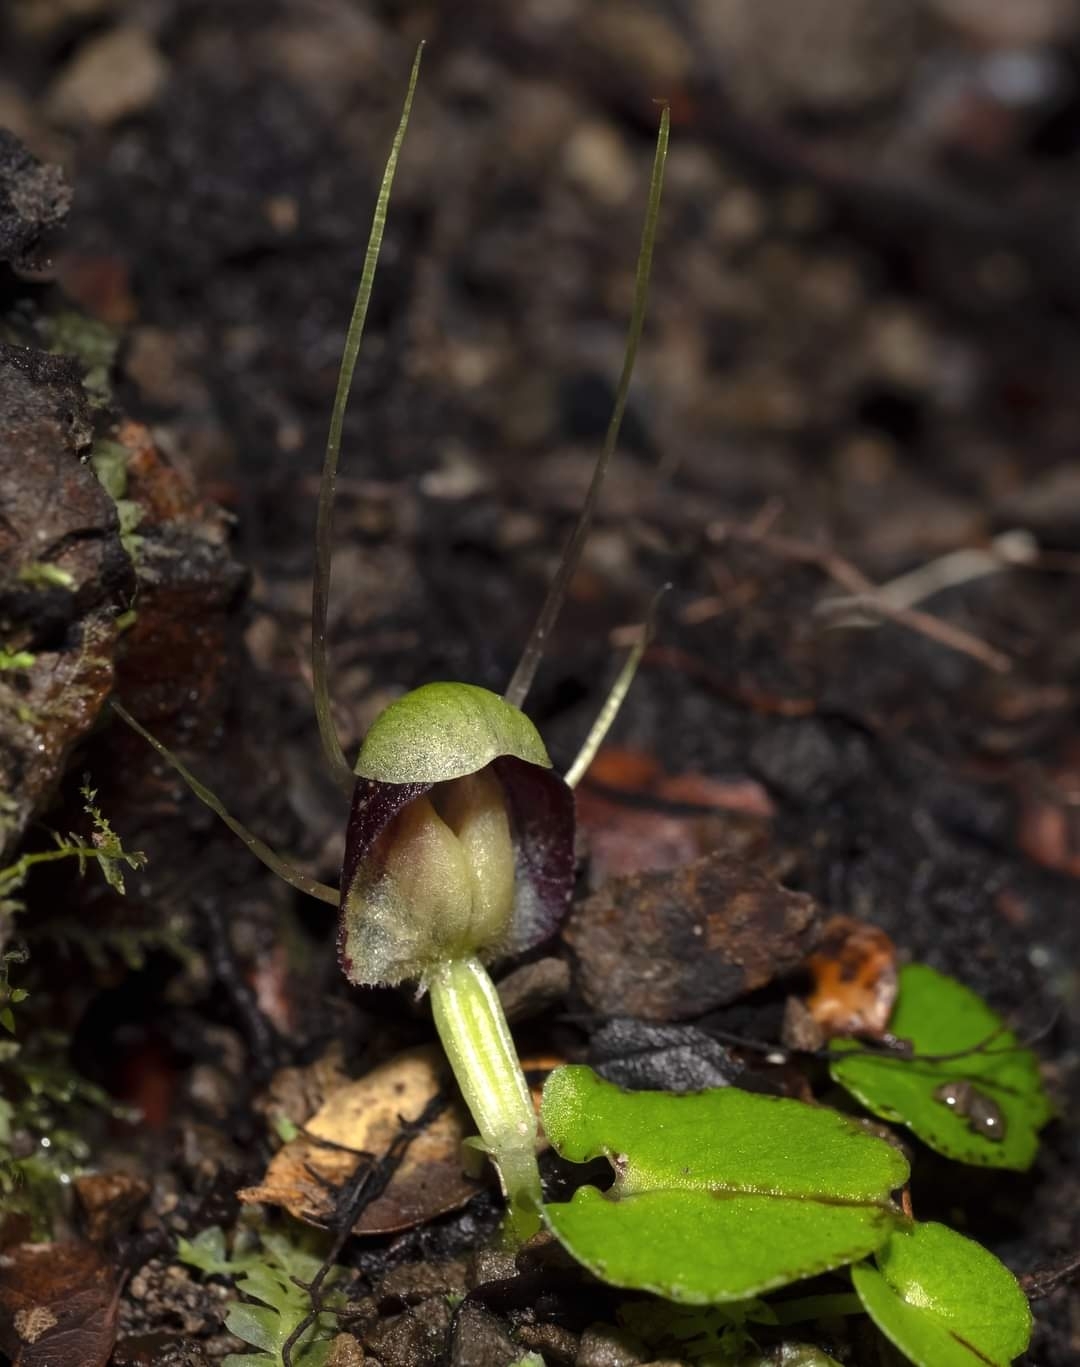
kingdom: Plantae
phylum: Tracheophyta
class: Liliopsida
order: Asparagales
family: Orchidaceae
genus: Corybas
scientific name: Corybas vitreus
